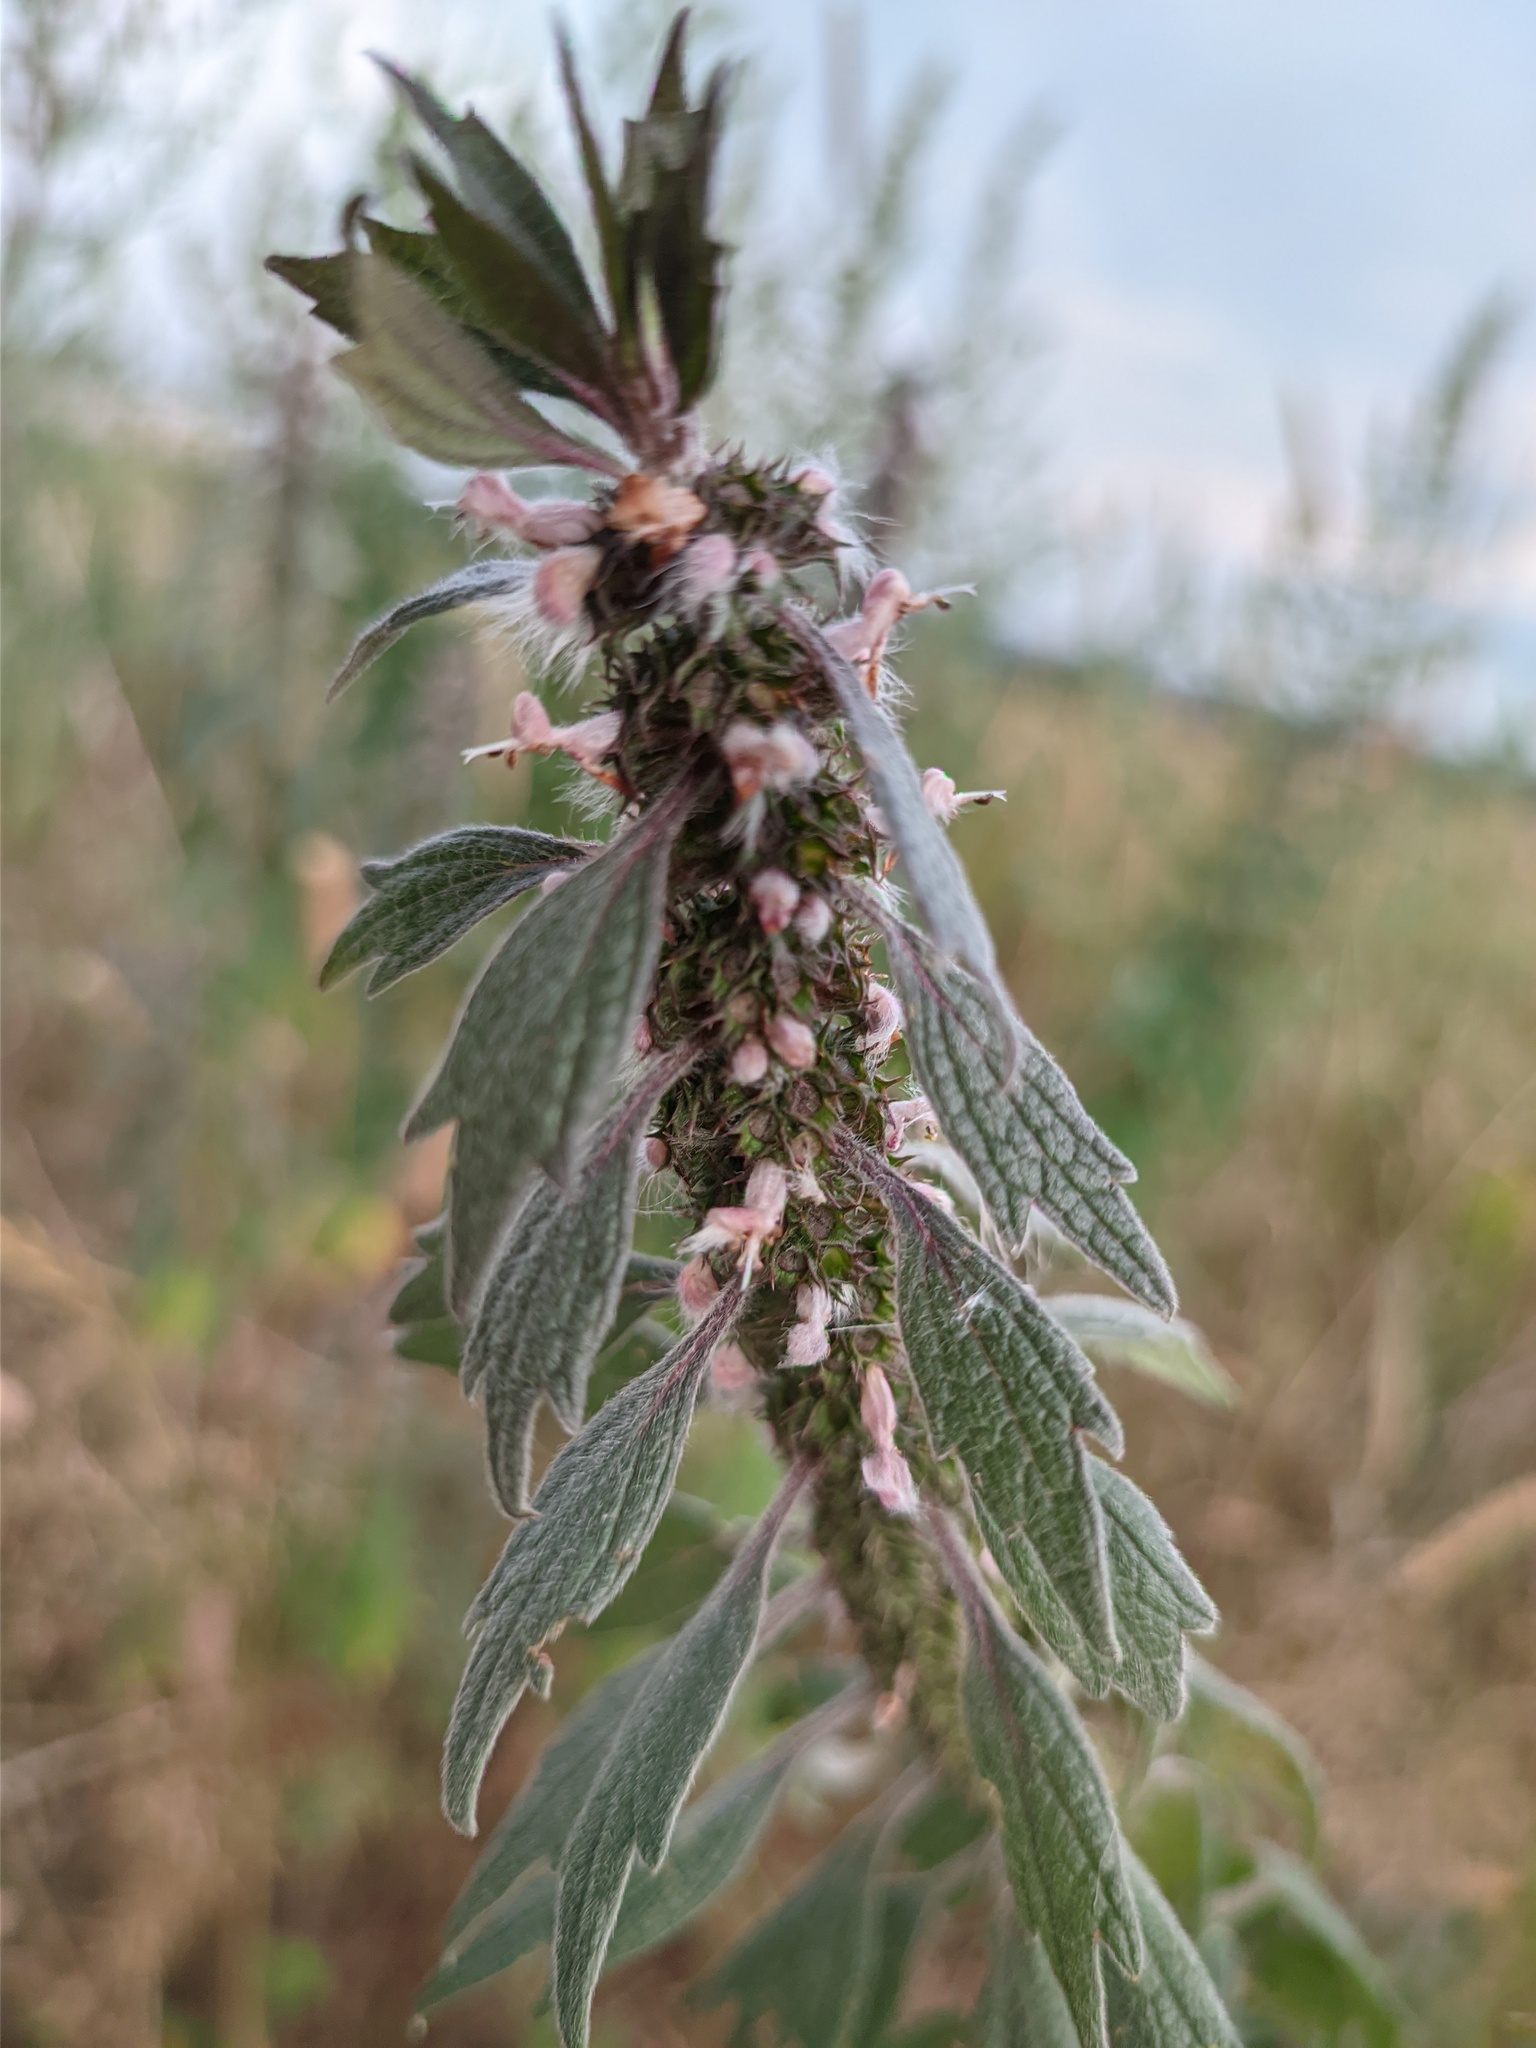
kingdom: Plantae
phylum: Tracheophyta
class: Magnoliopsida
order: Lamiales
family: Lamiaceae
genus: Leonurus
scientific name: Leonurus quinquelobatus
